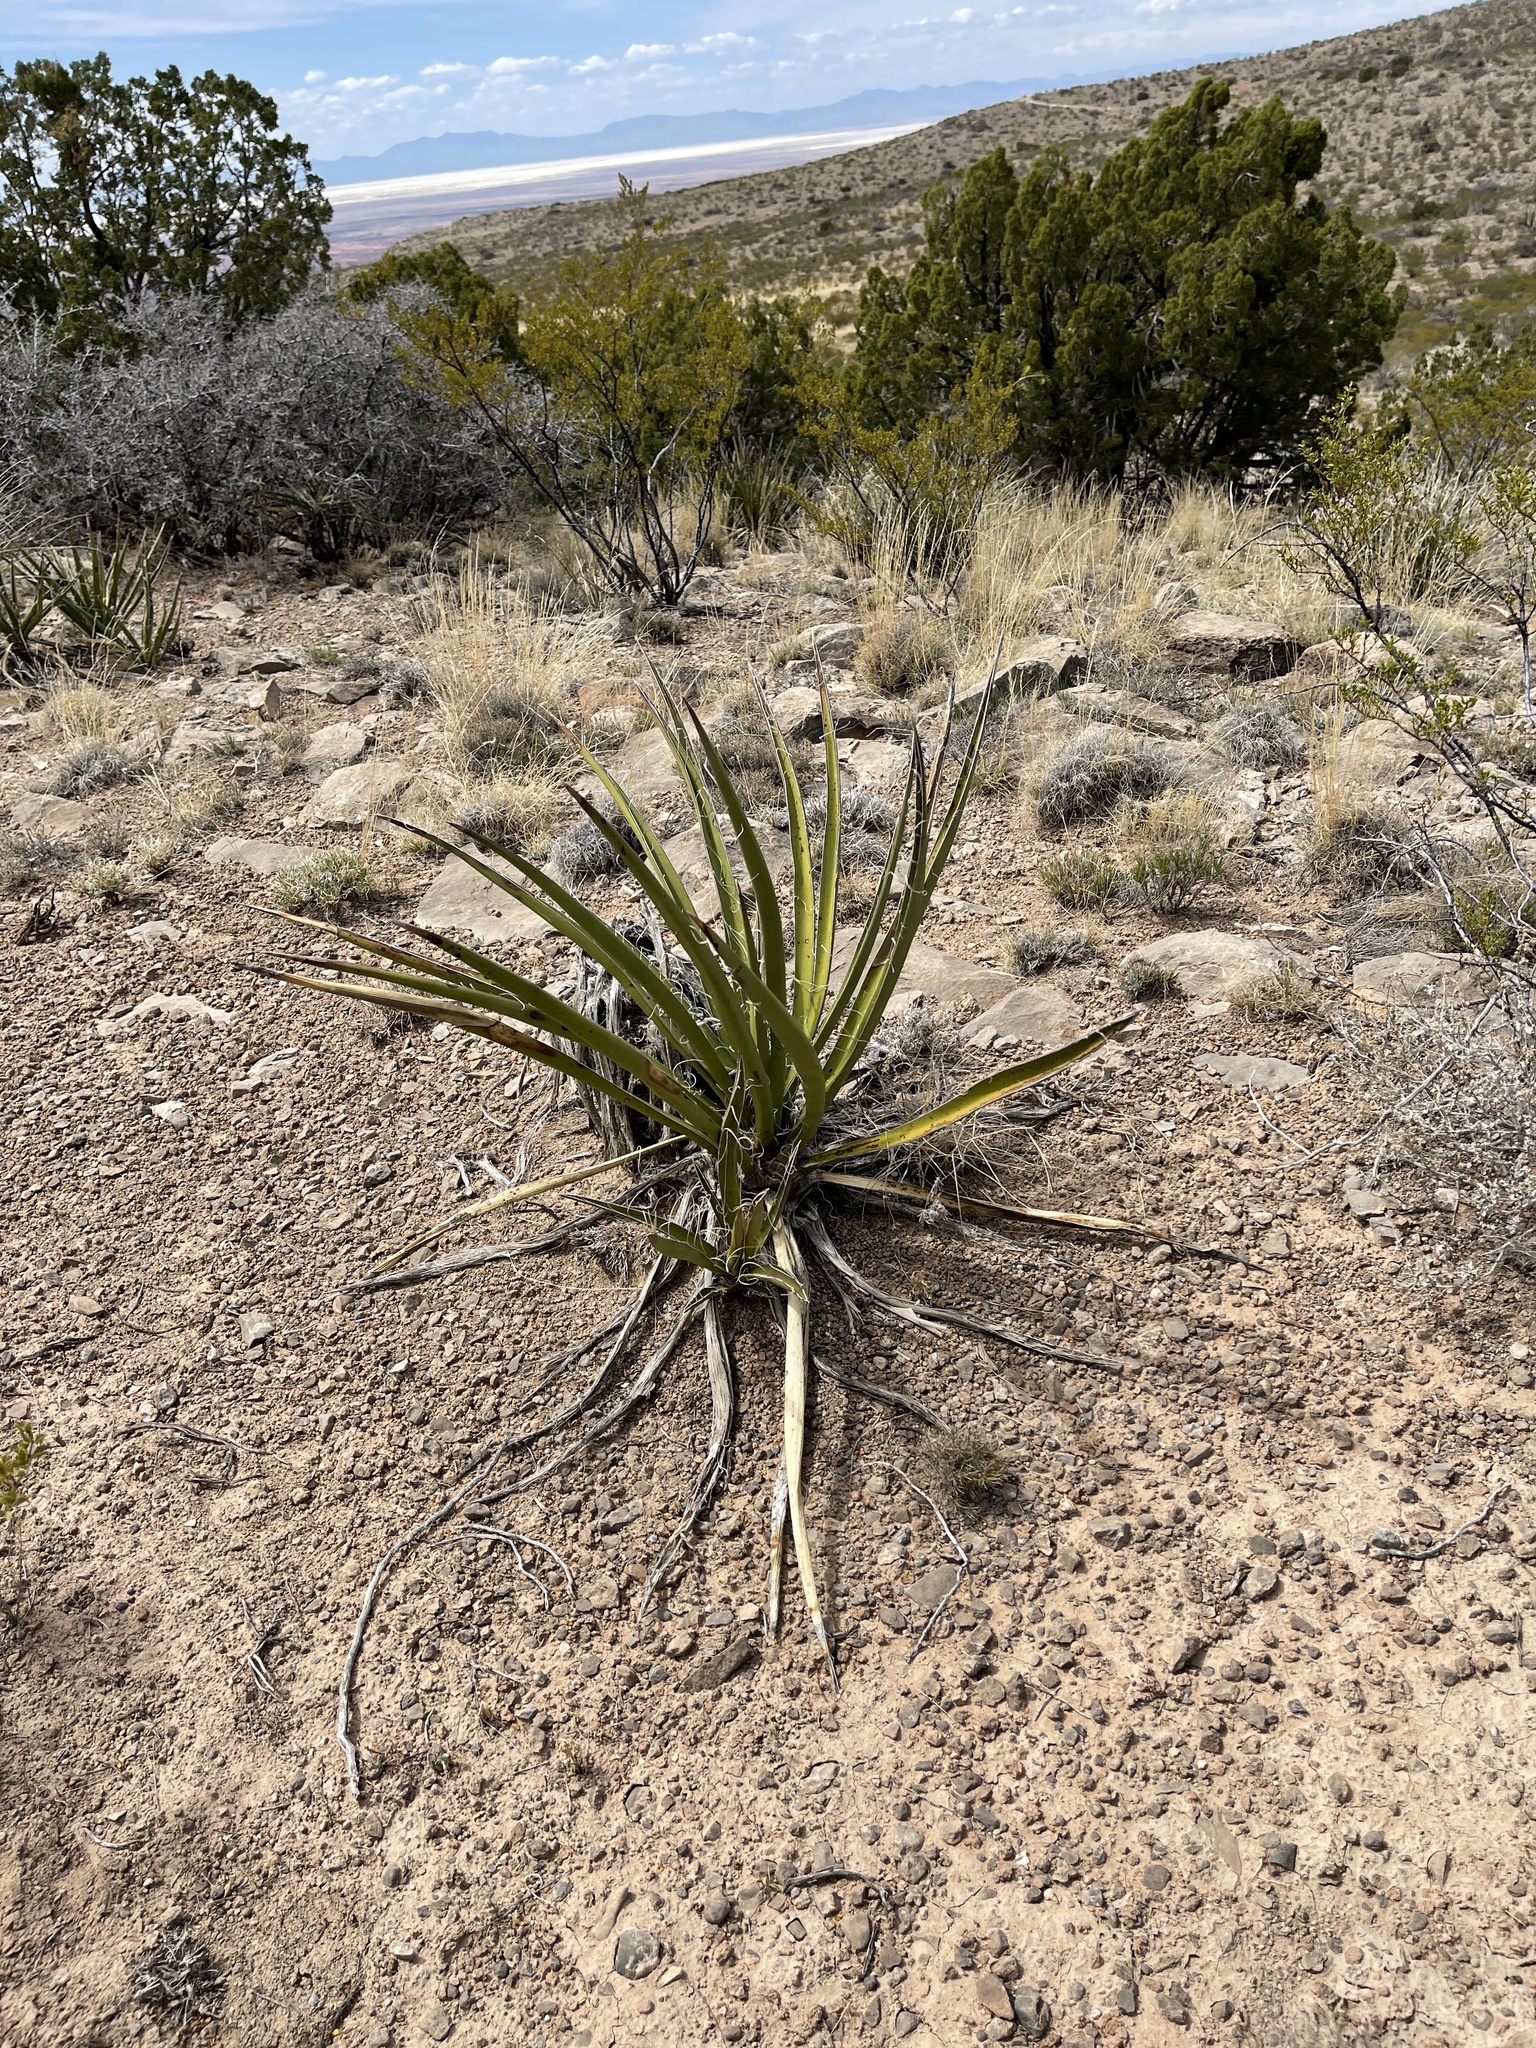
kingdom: Plantae
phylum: Tracheophyta
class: Liliopsida
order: Asparagales
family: Asparagaceae
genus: Yucca
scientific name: Yucca baccata
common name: Banana yucca
